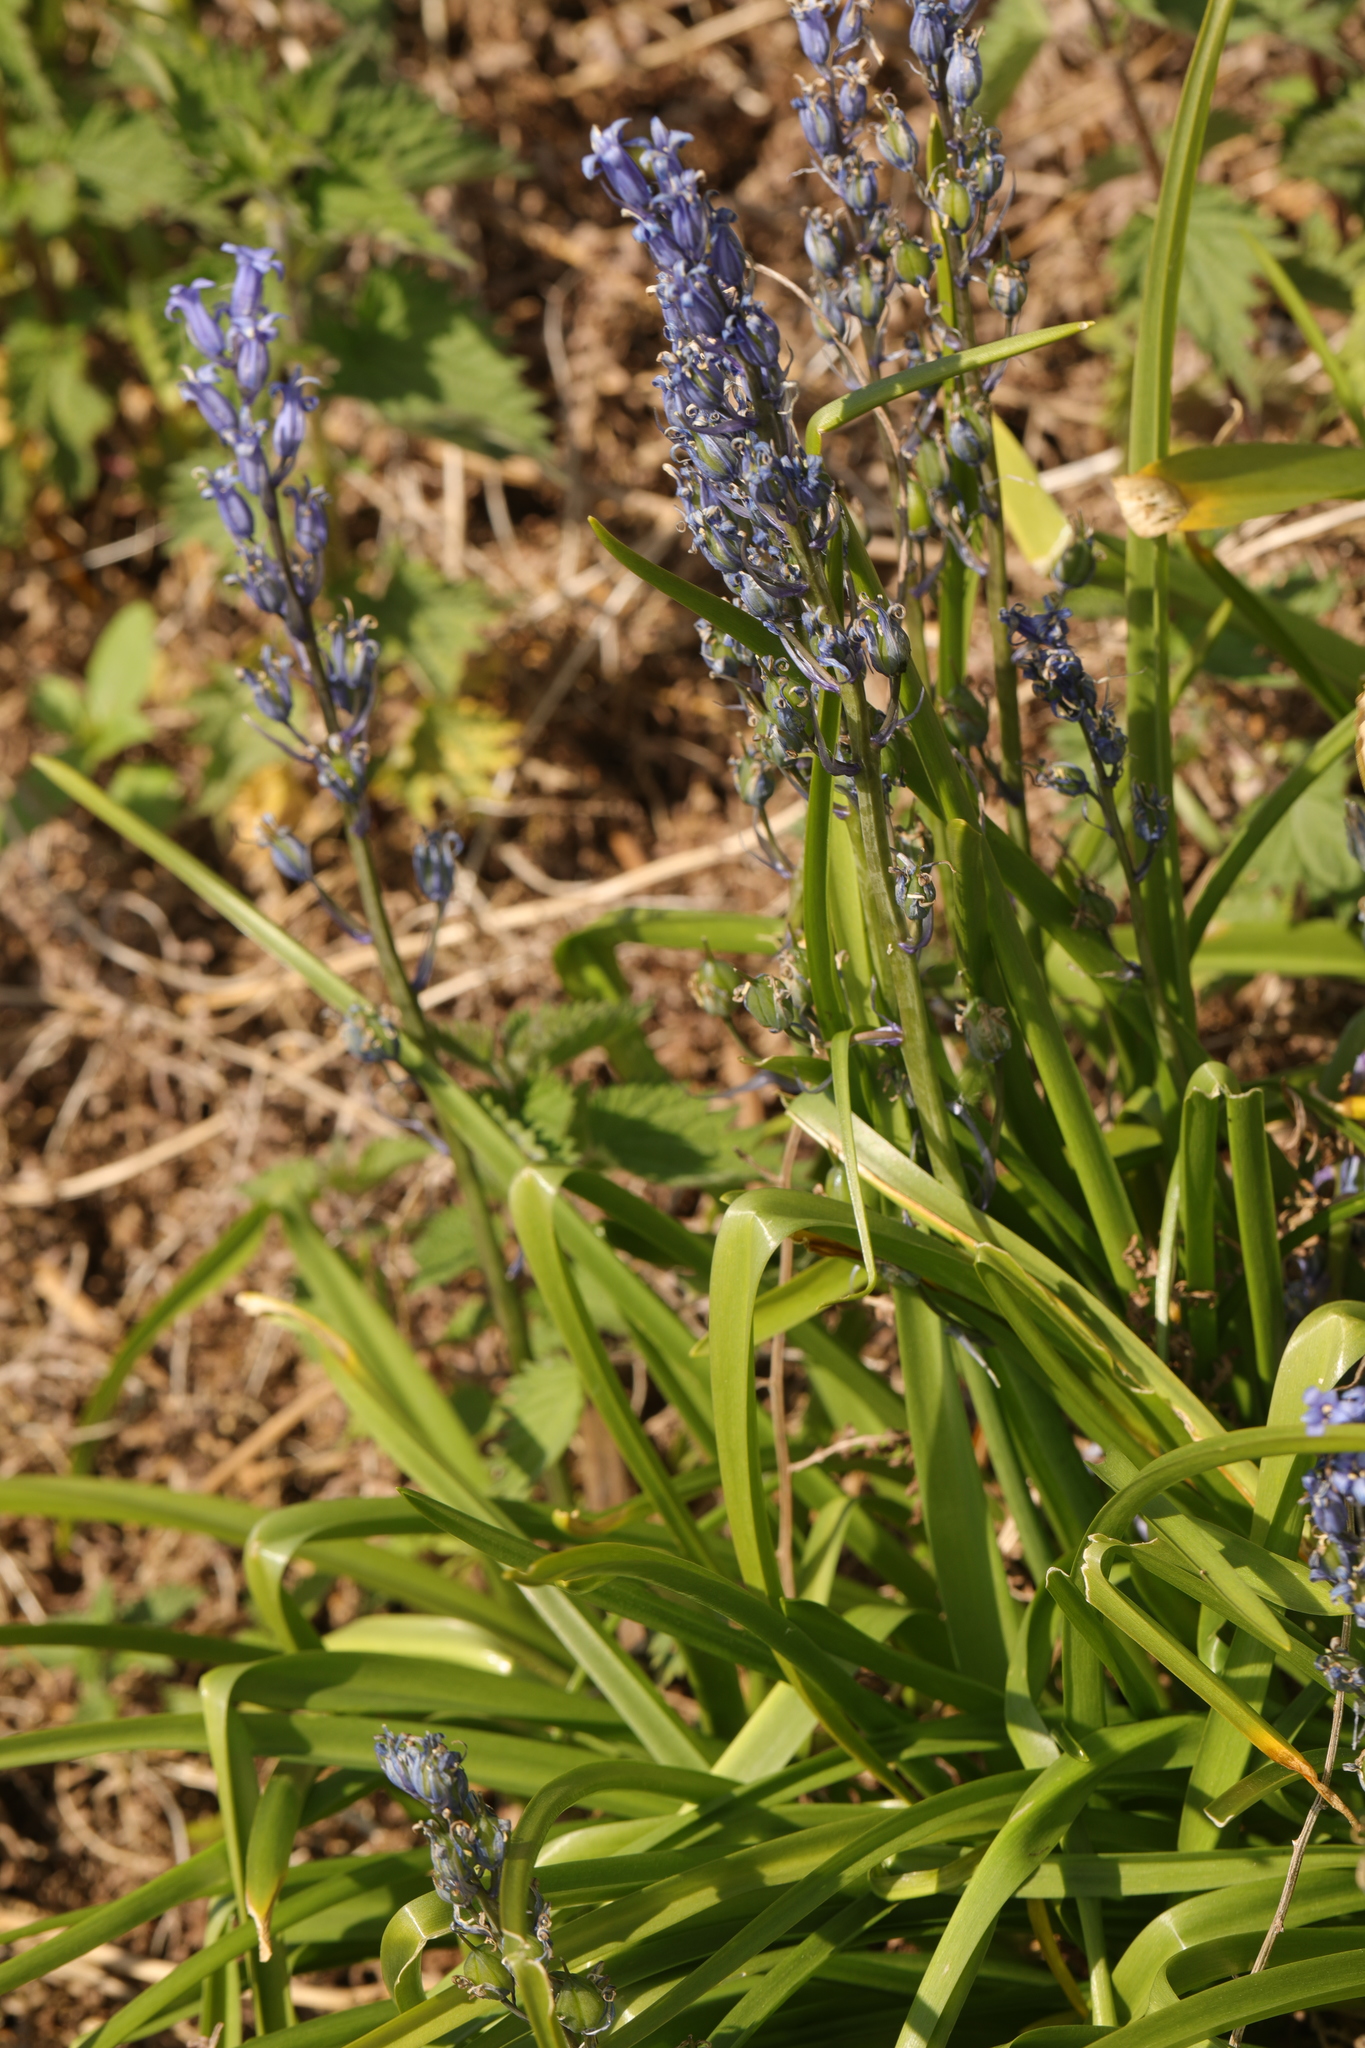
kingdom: Plantae
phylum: Tracheophyta
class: Liliopsida
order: Asparagales
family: Asparagaceae
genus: Hyacinthoides
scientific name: Hyacinthoides massartiana
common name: Hyacinthoides
